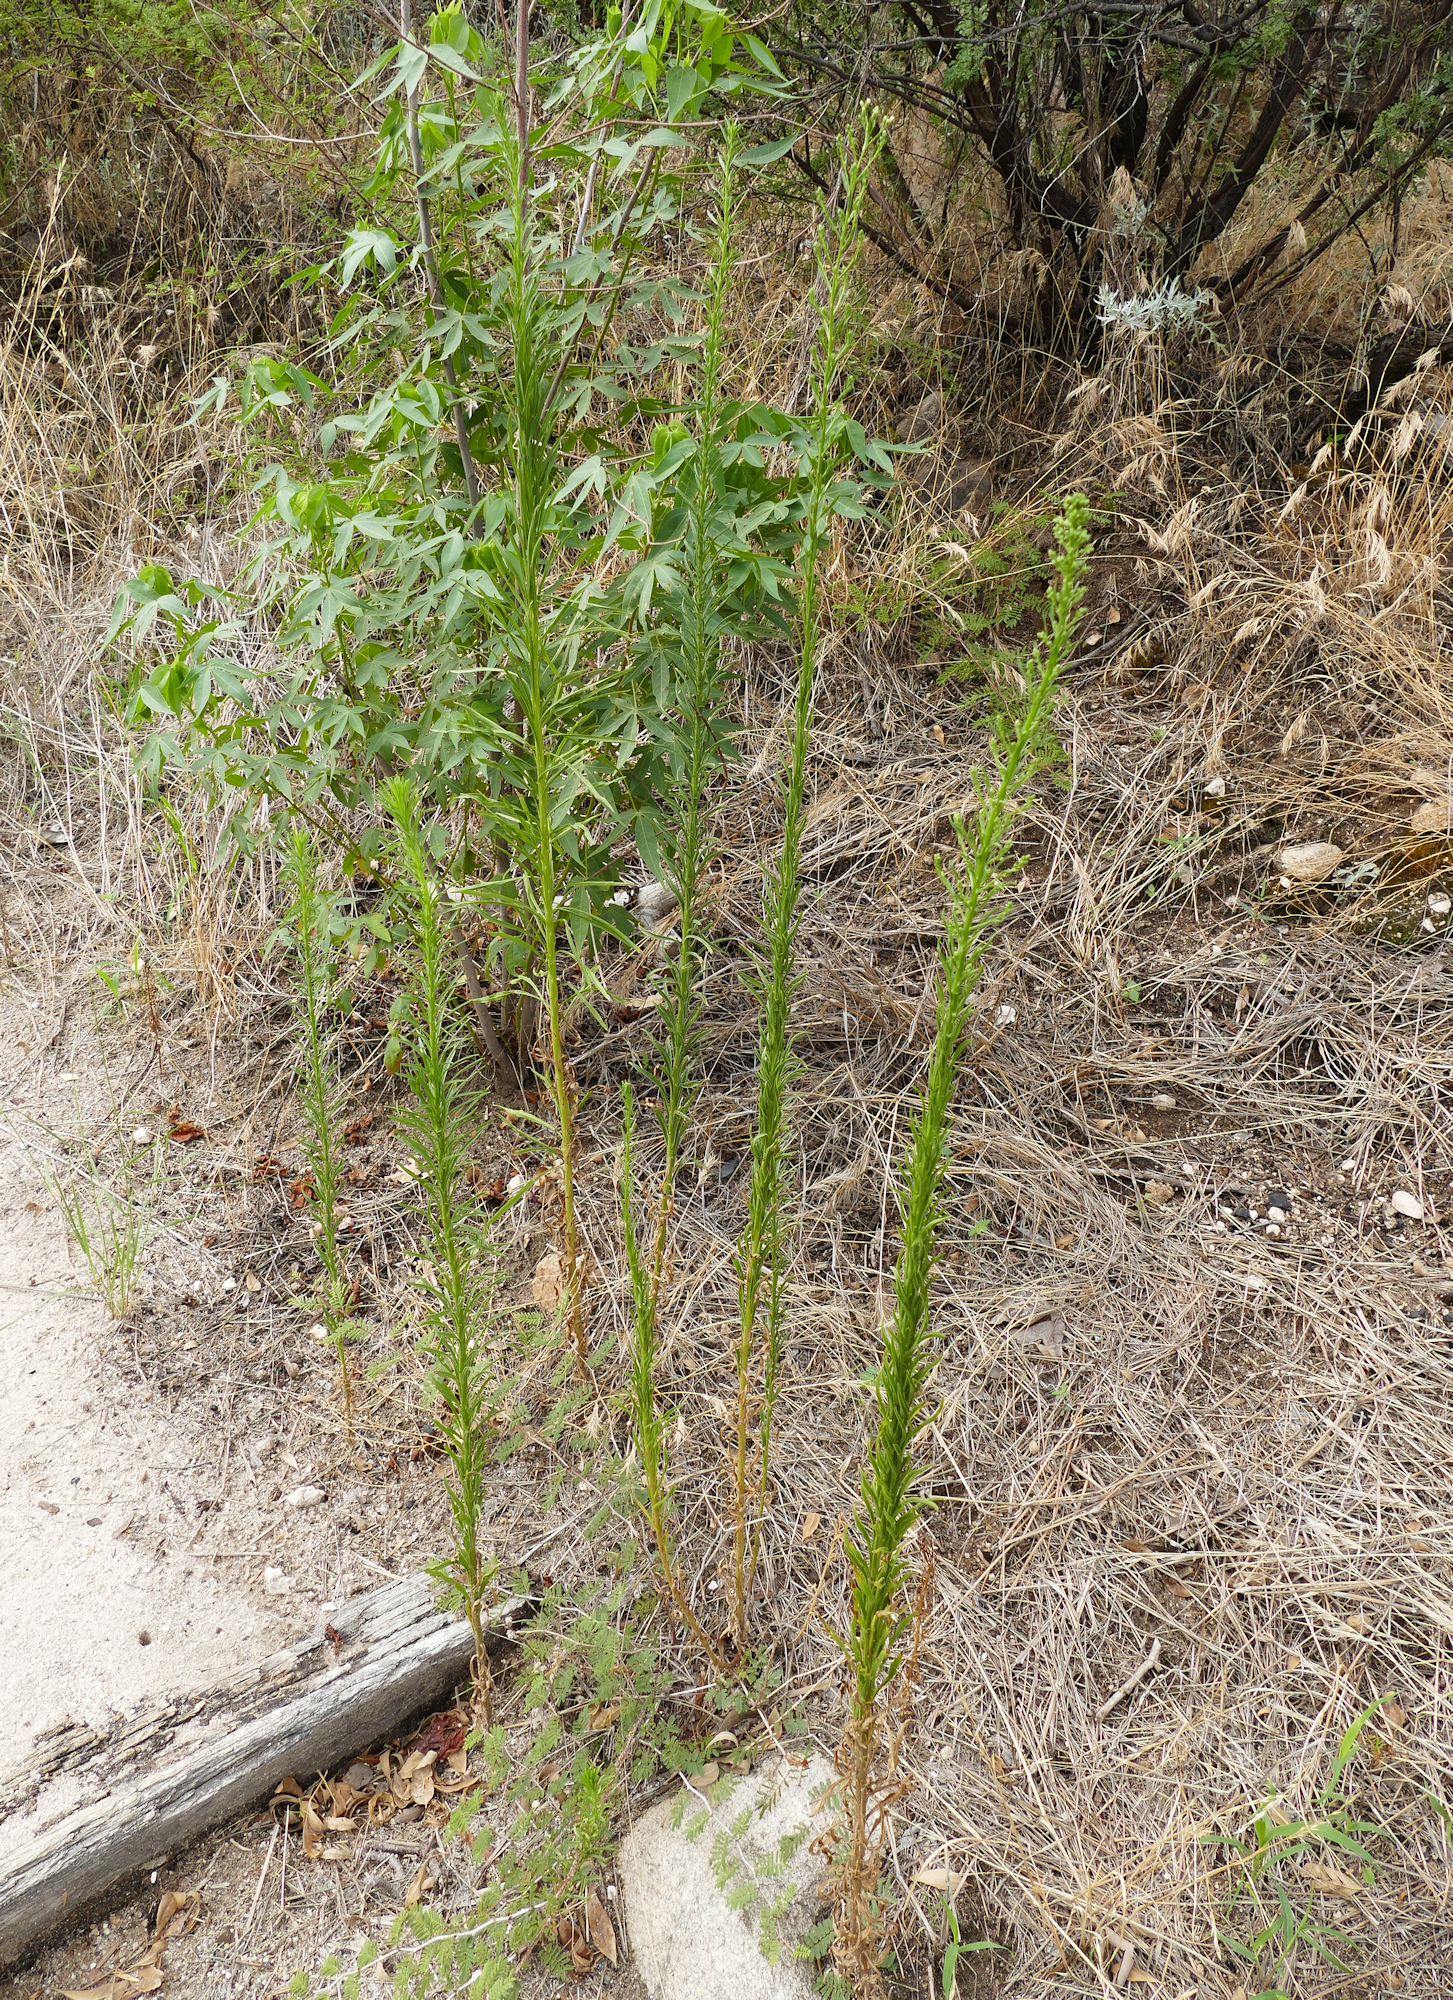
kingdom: Plantae
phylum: Tracheophyta
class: Magnoliopsida
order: Asterales
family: Asteraceae
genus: Erigeron
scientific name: Erigeron canadensis
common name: Canadian fleabane
